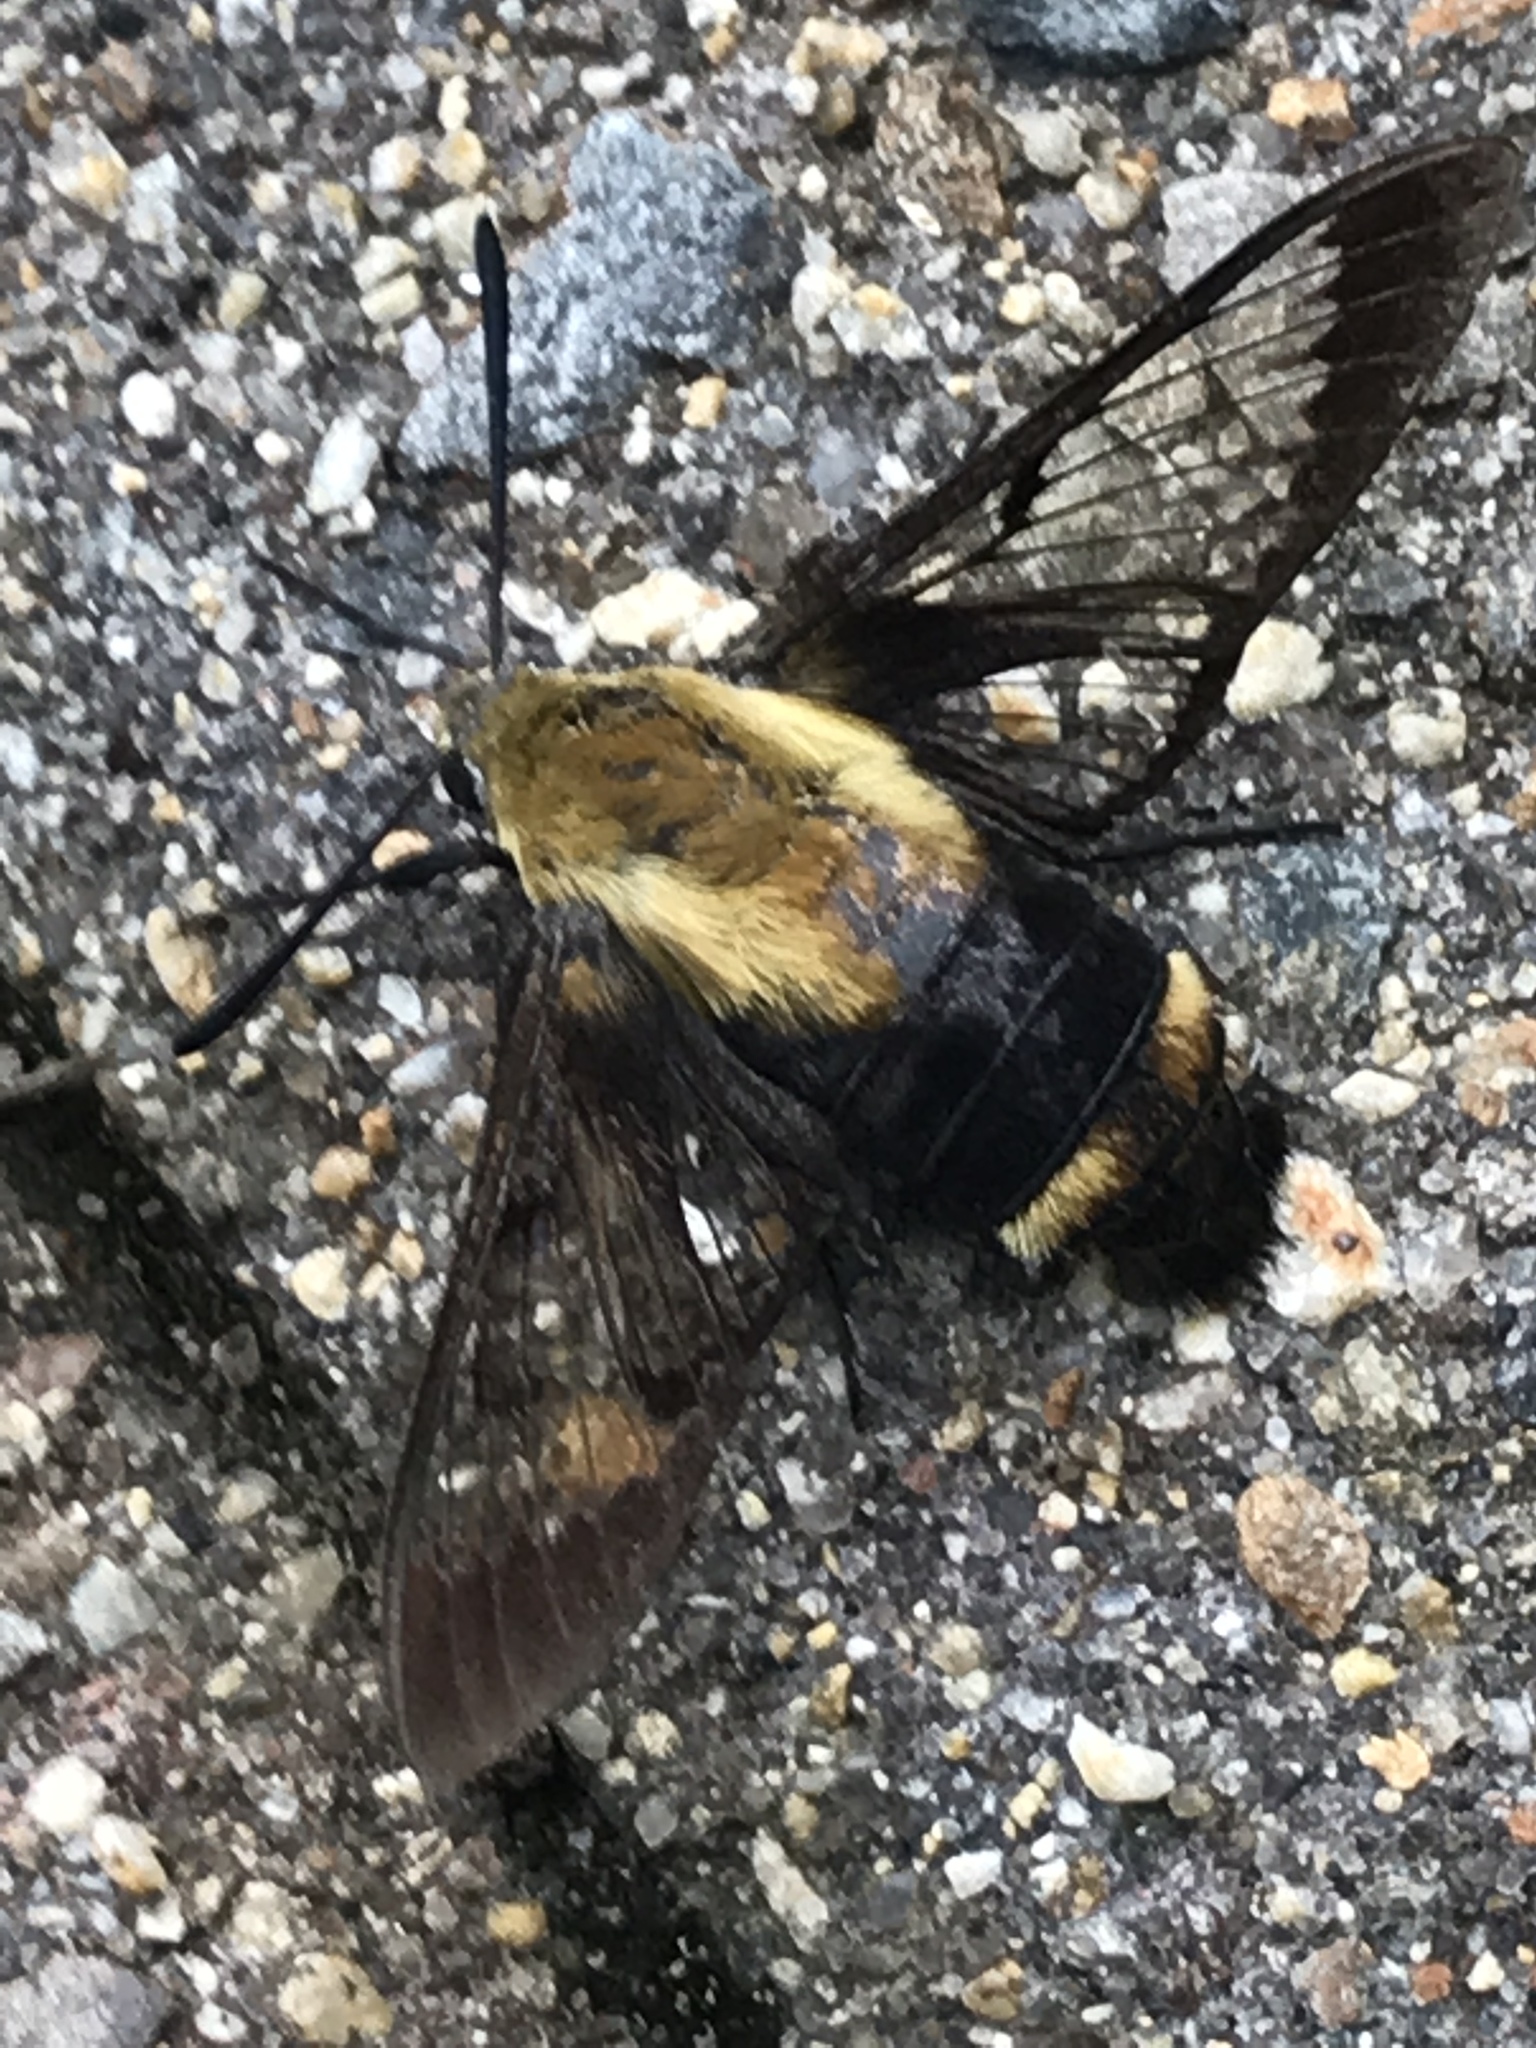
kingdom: Animalia
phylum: Arthropoda
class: Insecta
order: Lepidoptera
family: Sphingidae
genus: Hemaris
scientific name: Hemaris diffinis
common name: Bumblebee moth
